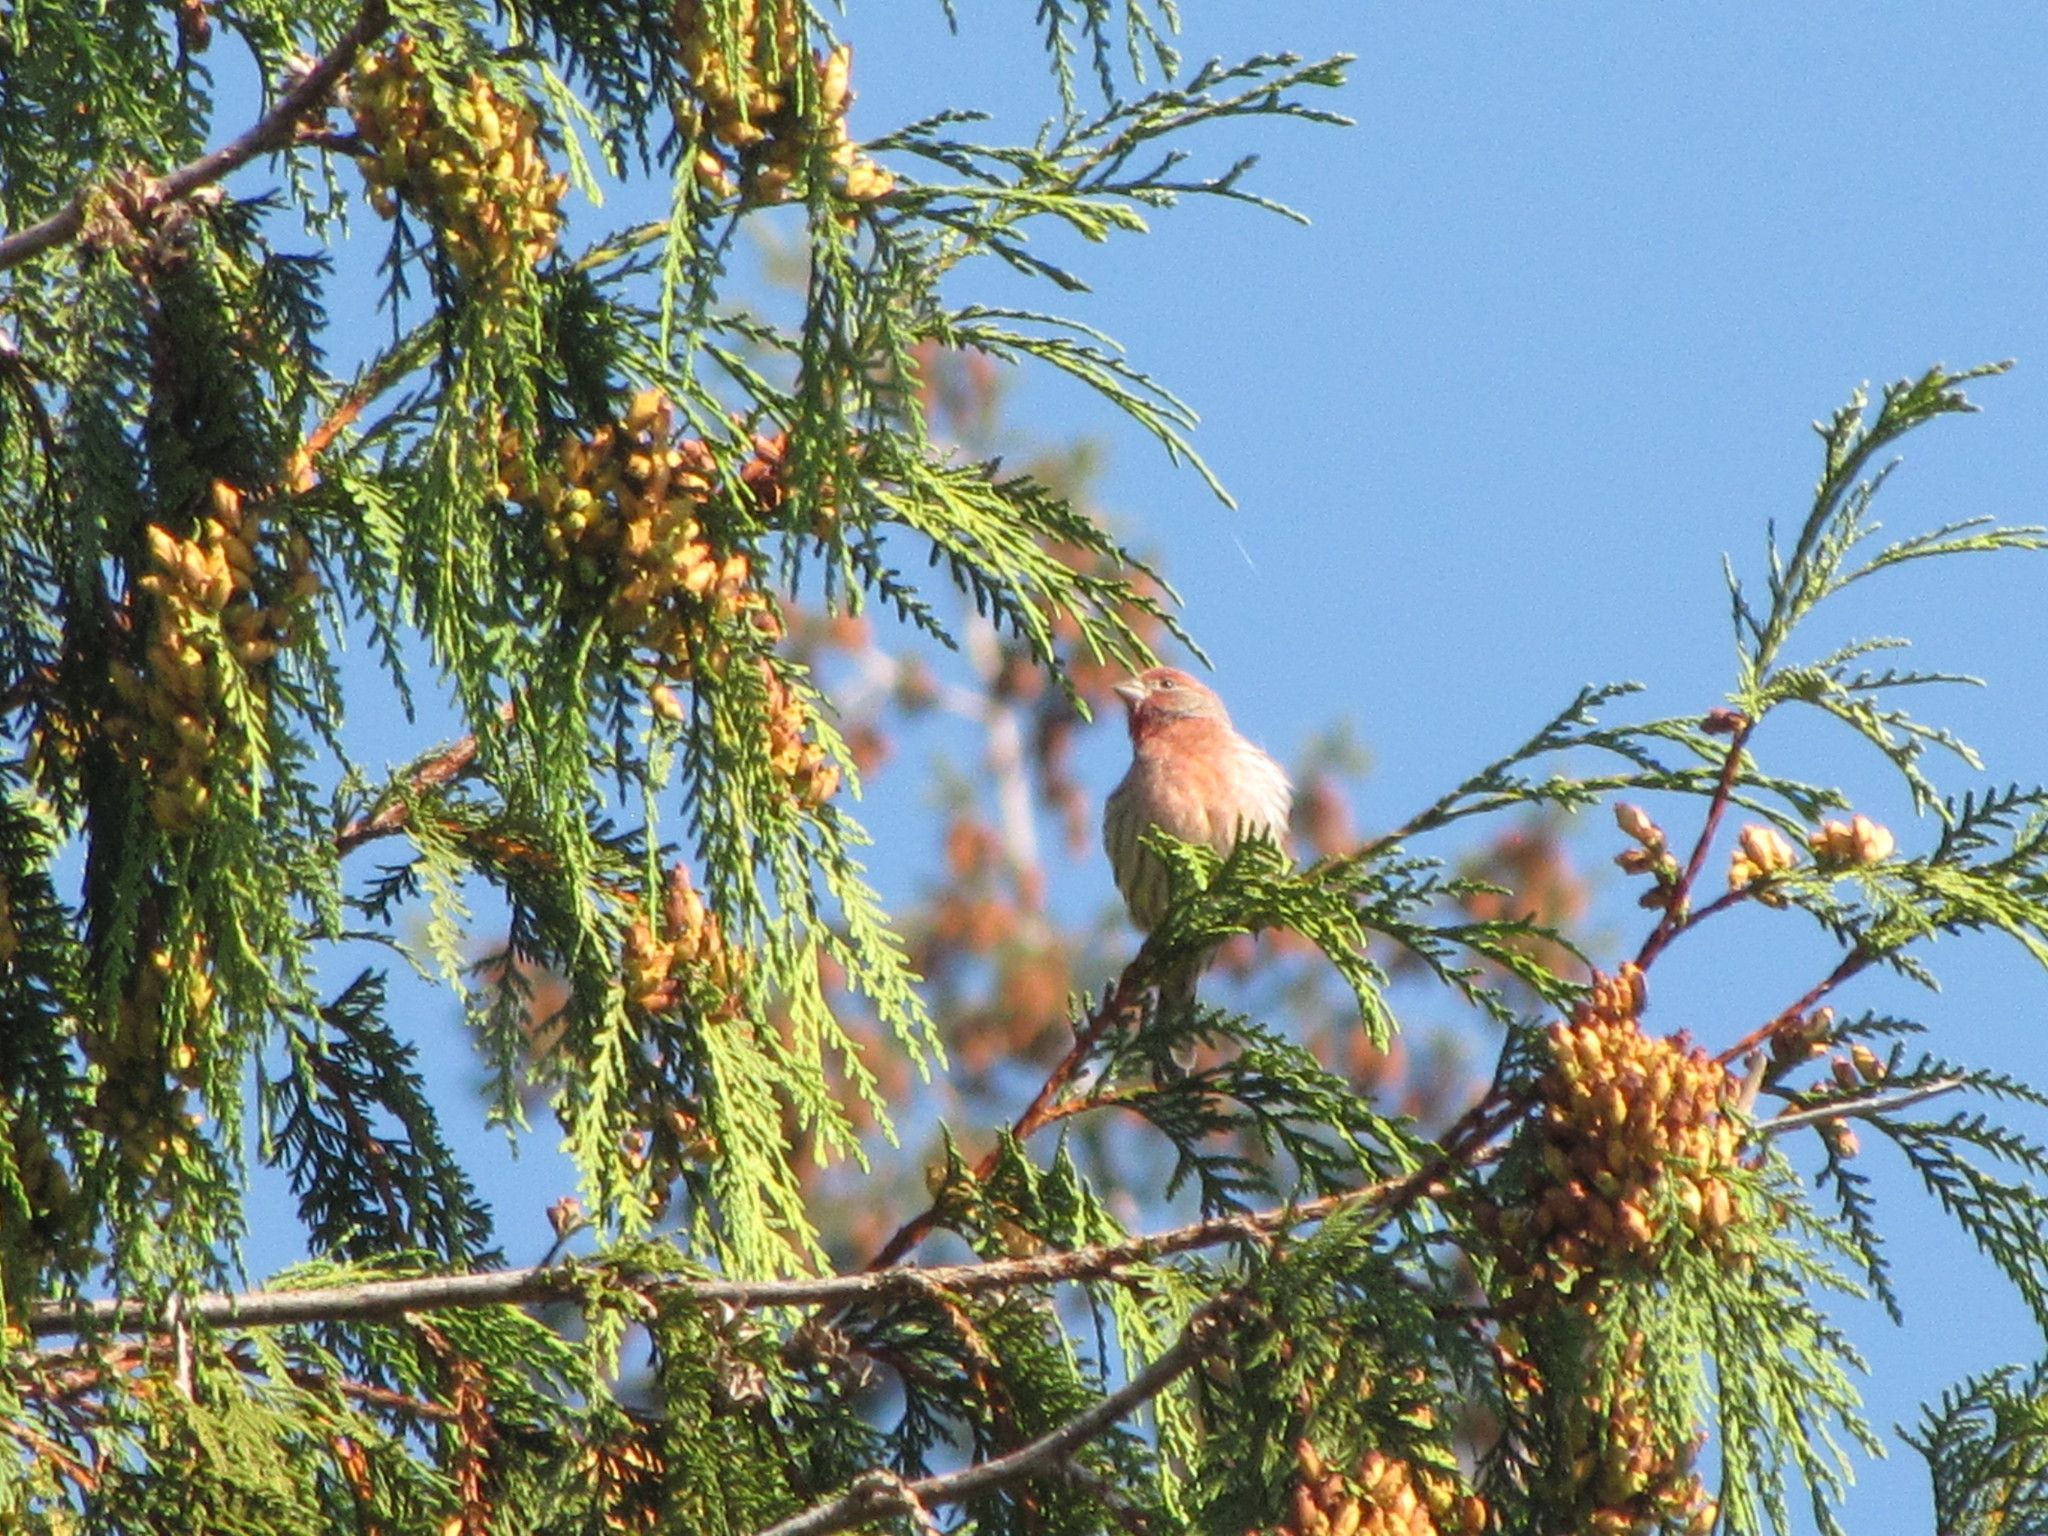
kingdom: Animalia
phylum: Chordata
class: Aves
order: Passeriformes
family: Fringillidae
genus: Haemorhous
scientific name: Haemorhous mexicanus
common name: House finch
